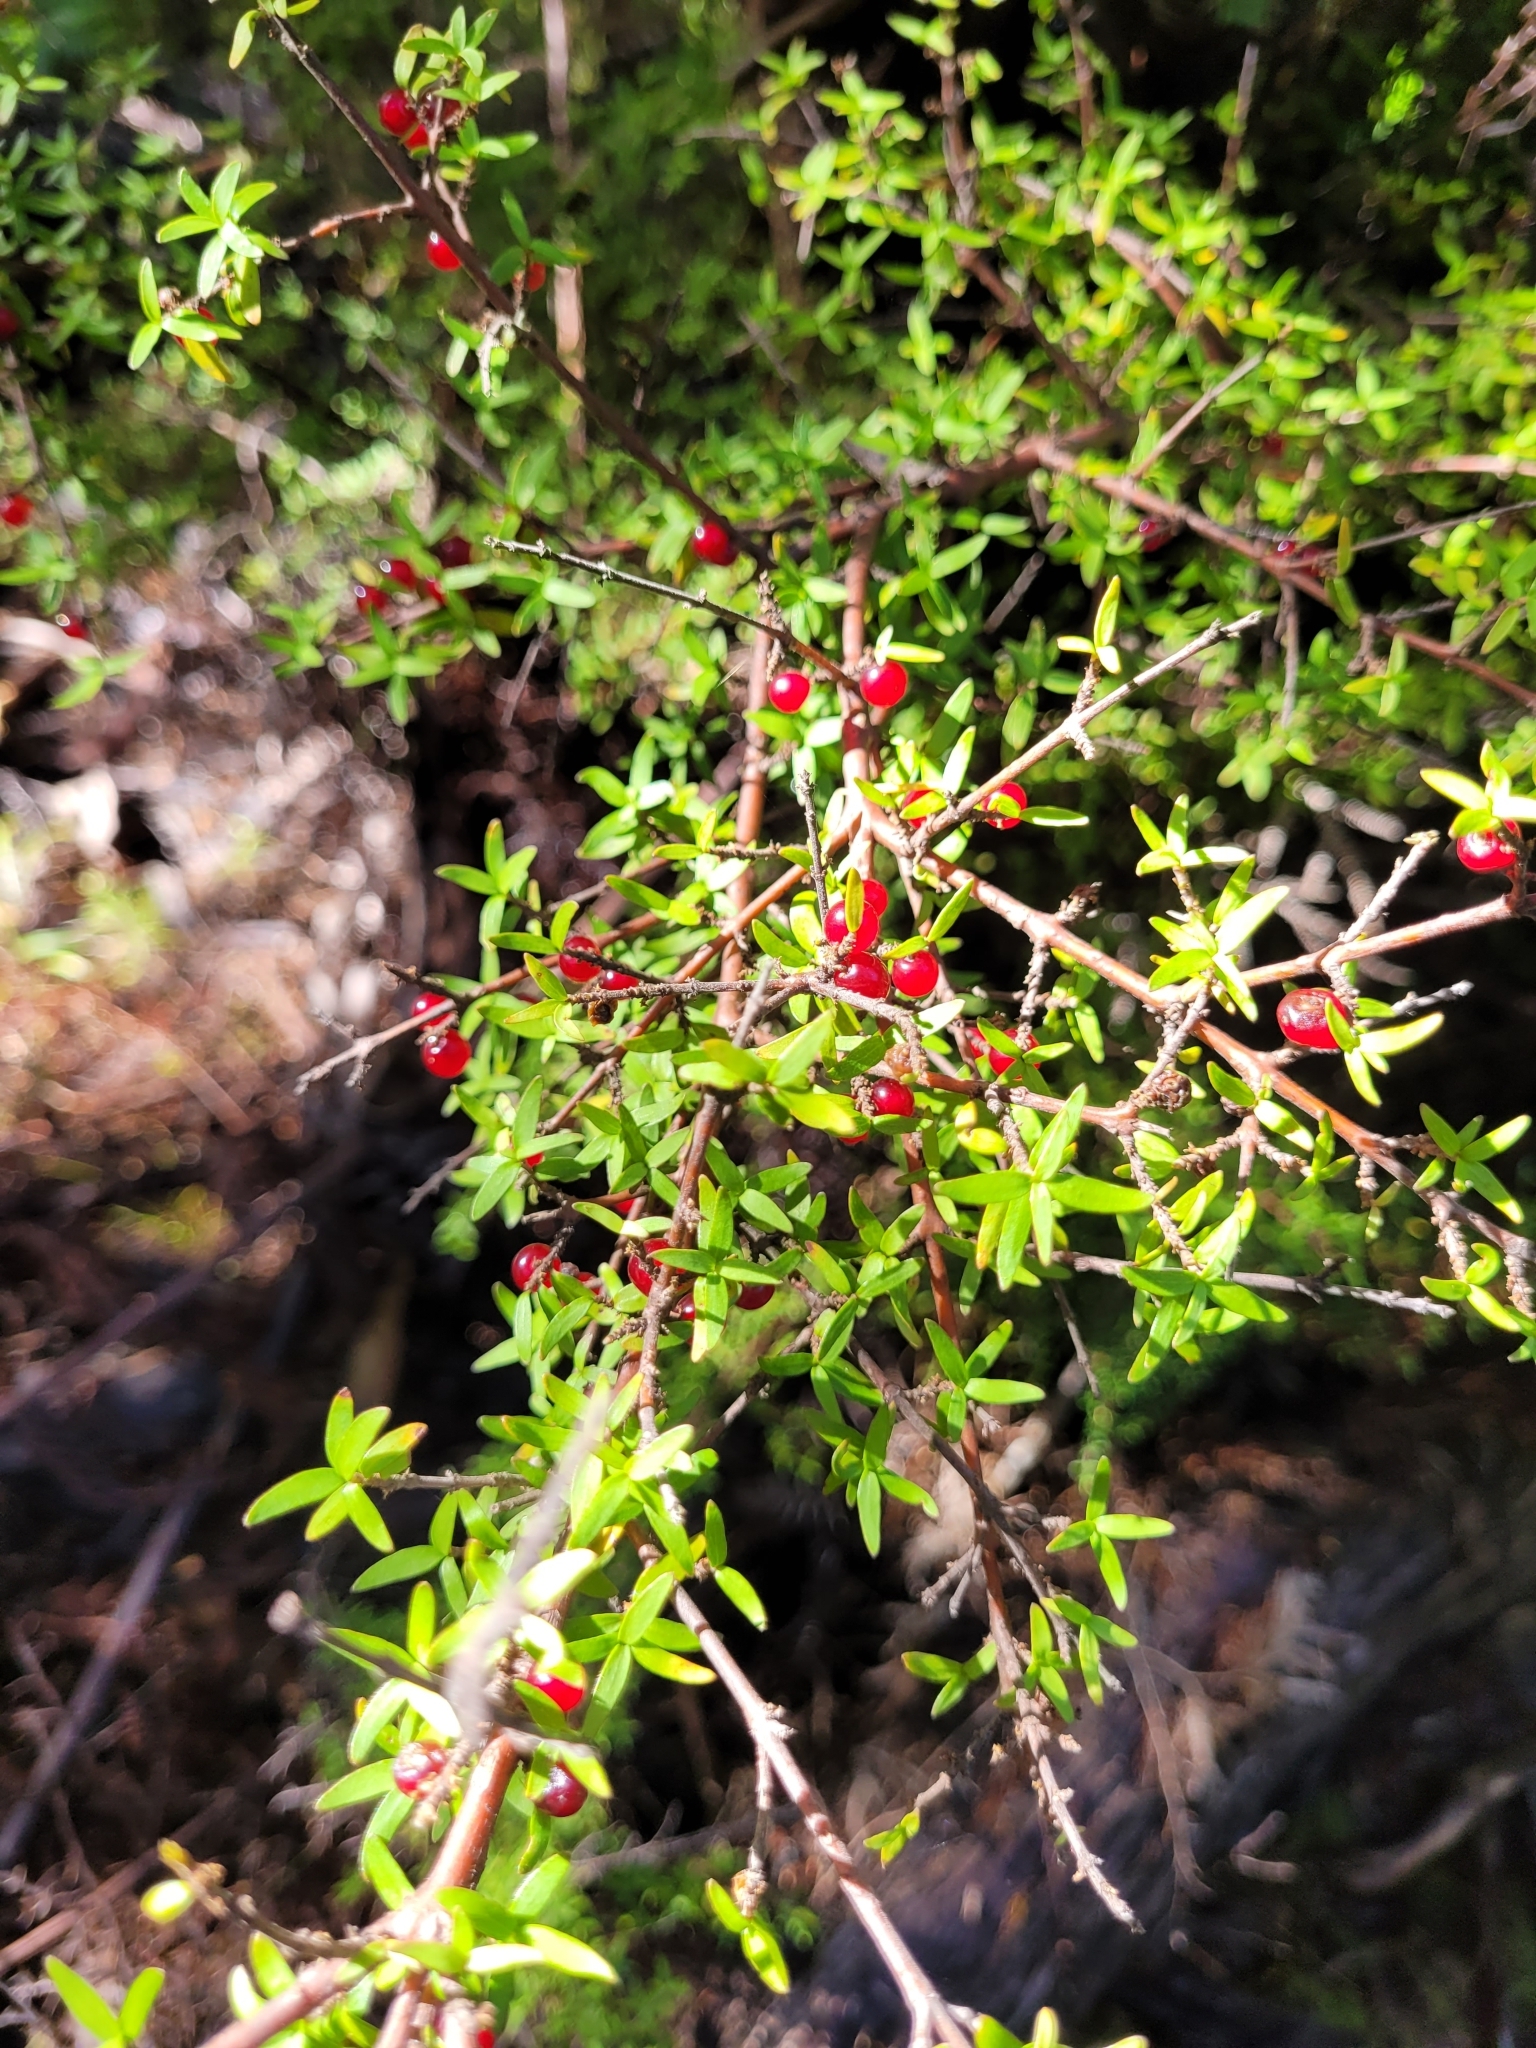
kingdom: Plantae
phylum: Tracheophyta
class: Magnoliopsida
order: Gentianales
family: Rubiaceae
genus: Coprosma
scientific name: Coprosma rhamnoides
